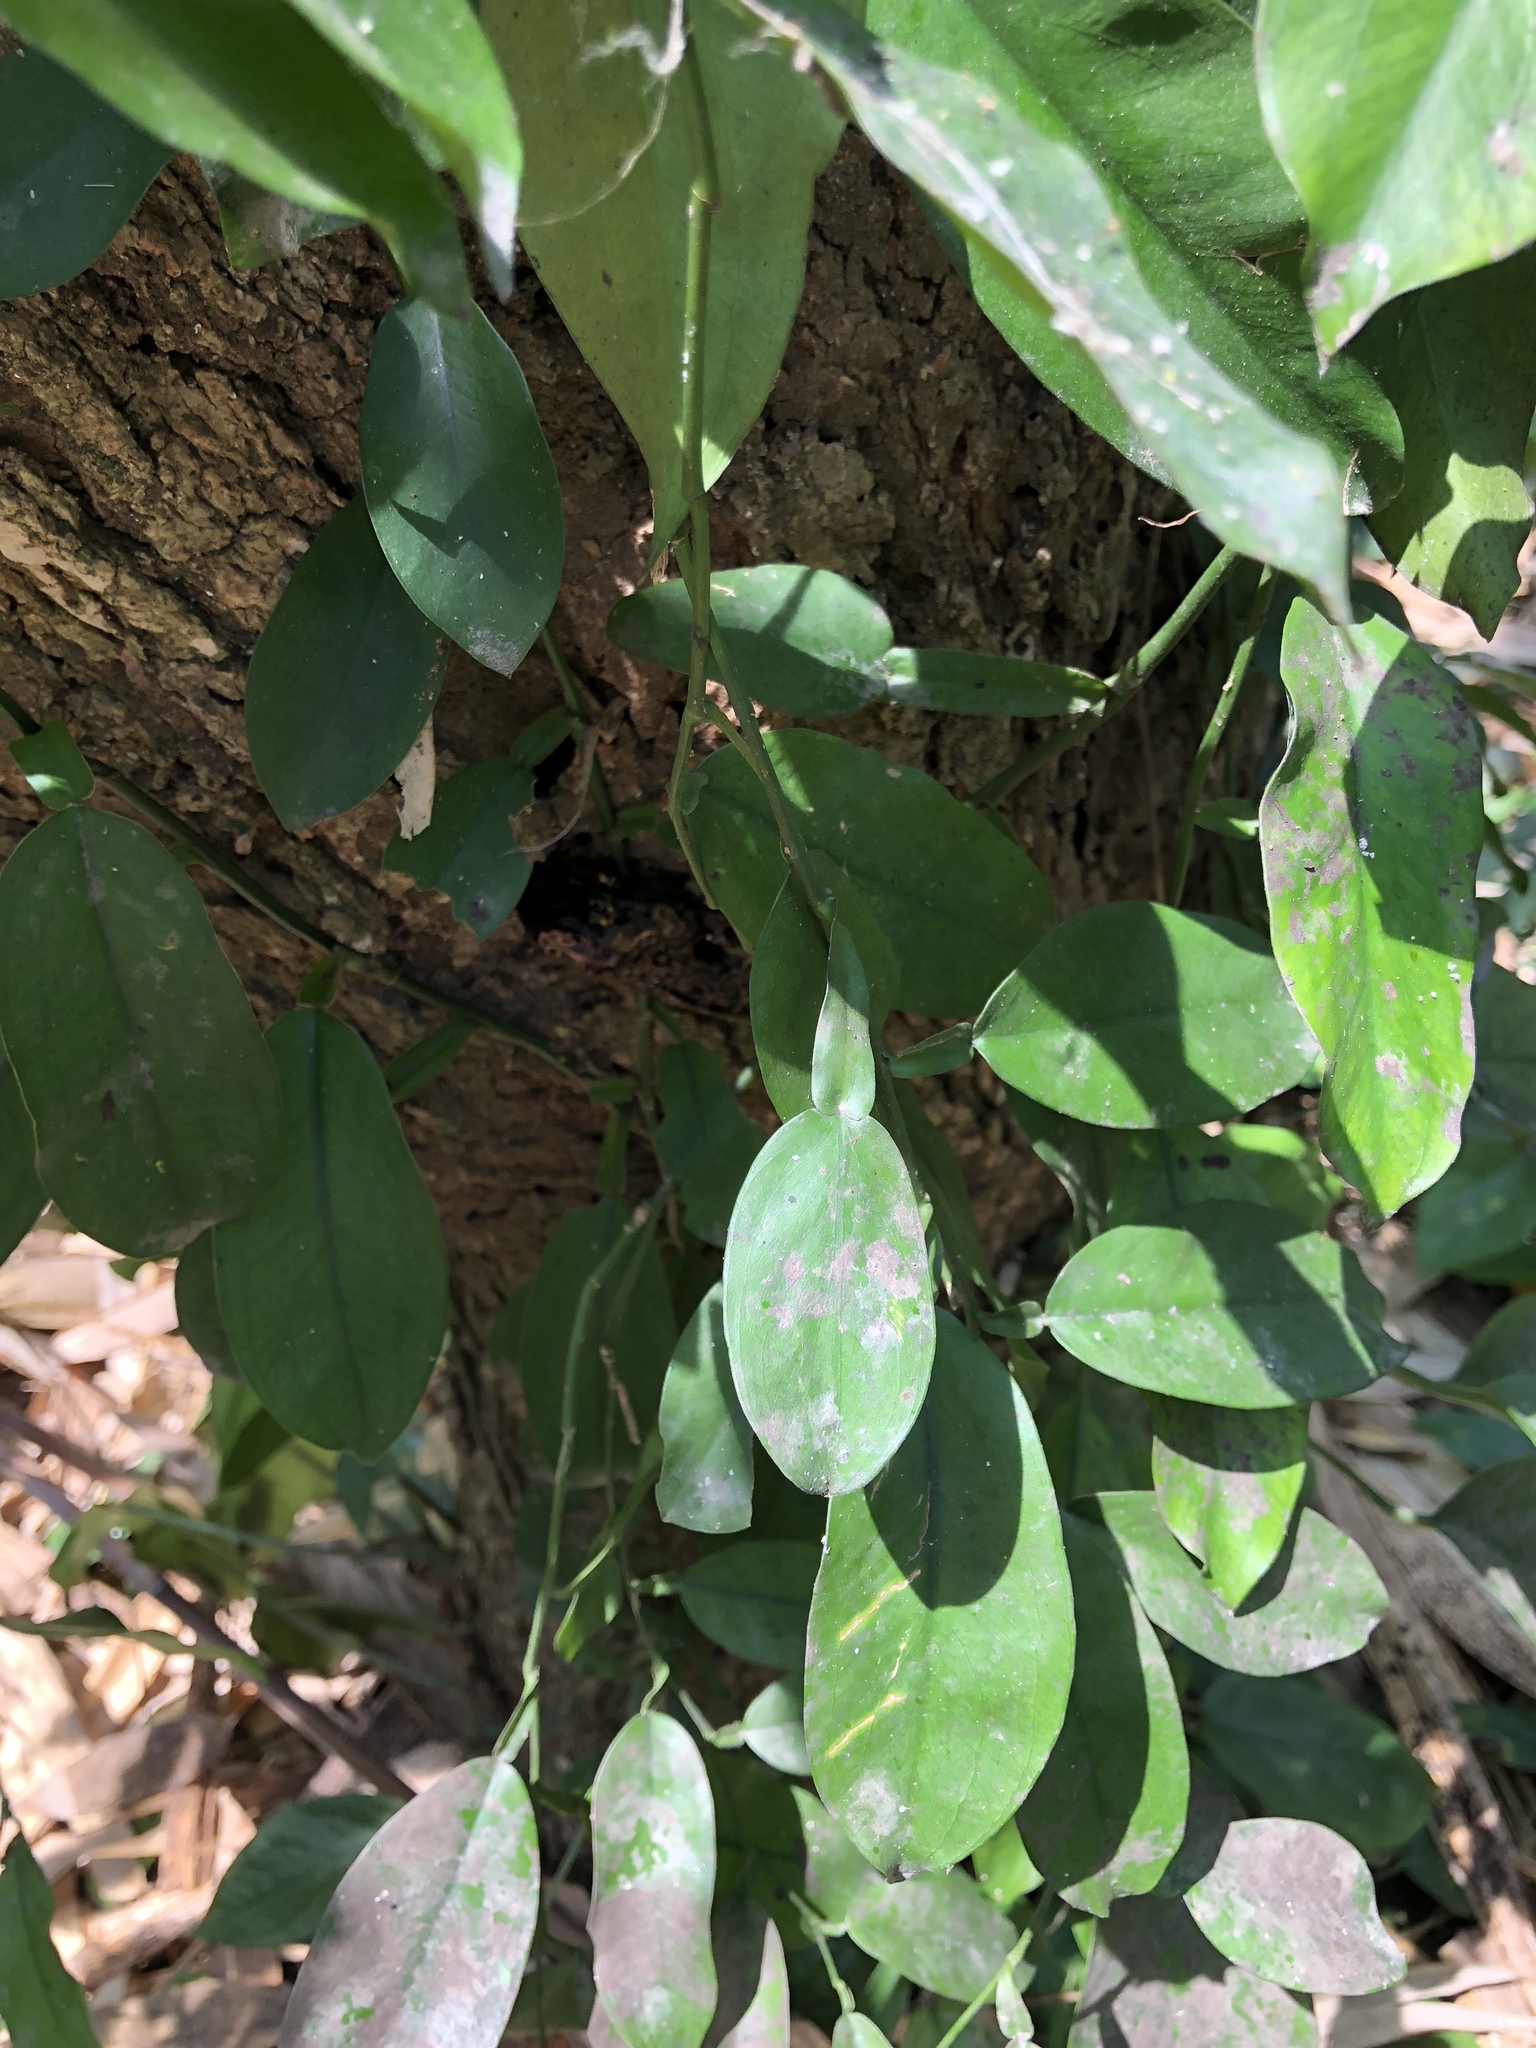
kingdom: Plantae
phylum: Tracheophyta
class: Liliopsida
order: Alismatales
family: Araceae
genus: Pothos
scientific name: Pothos chinensis
